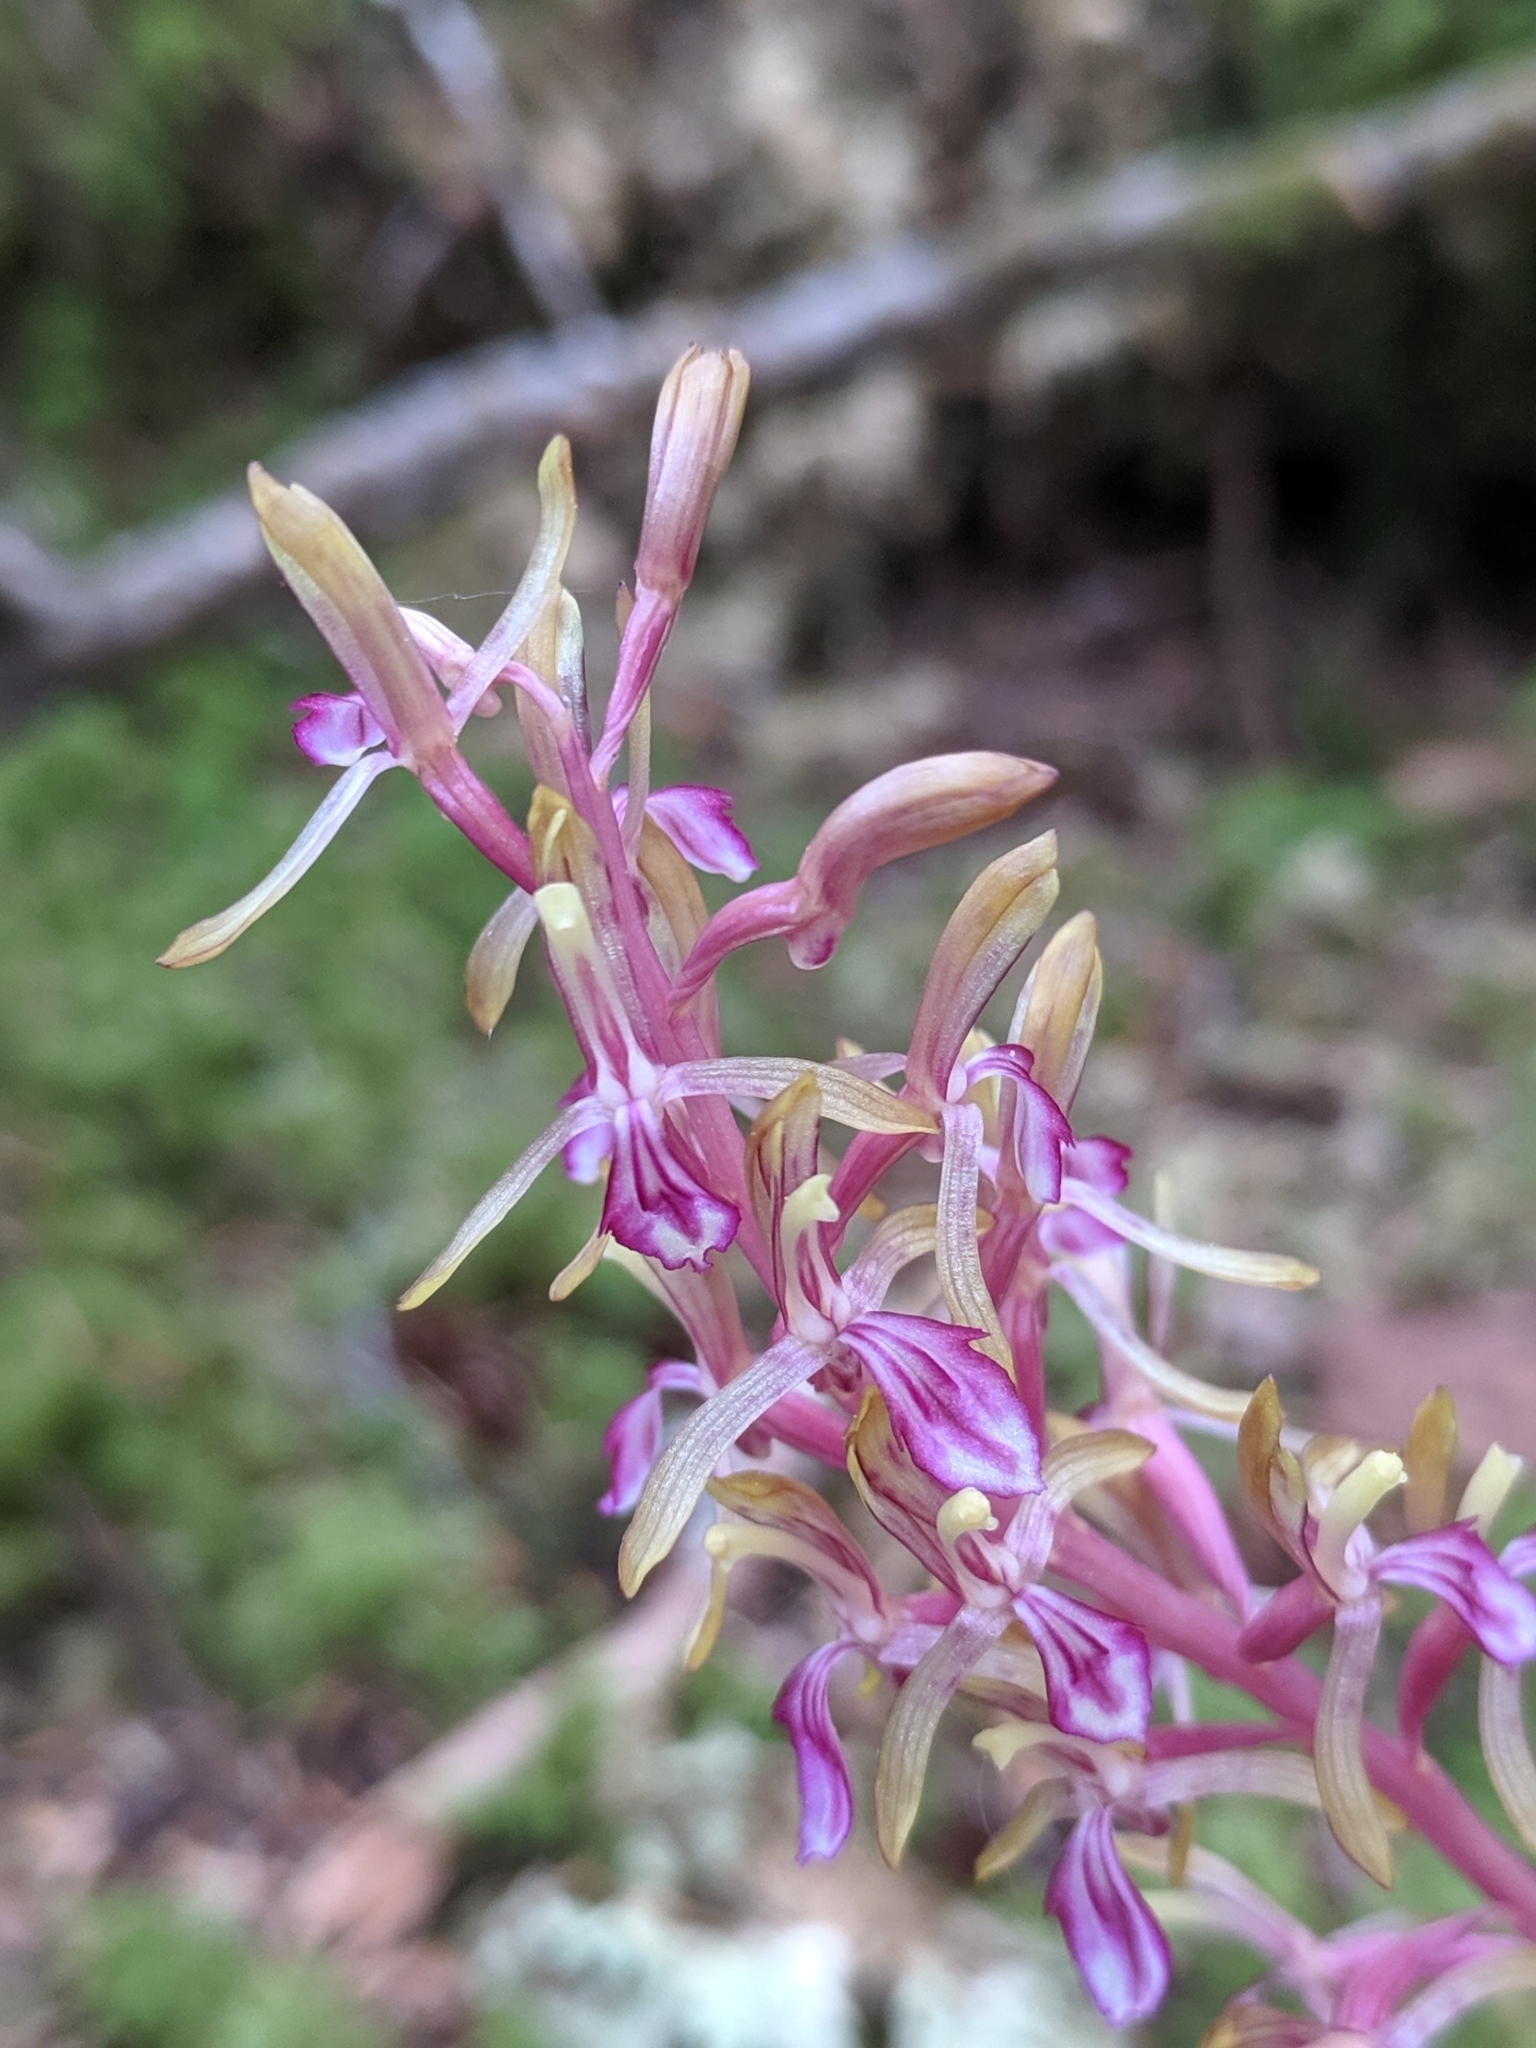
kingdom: Plantae
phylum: Tracheophyta
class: Liliopsida
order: Asparagales
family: Orchidaceae
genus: Corallorhiza
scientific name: Corallorhiza mertensiana
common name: Pacific coralroot
